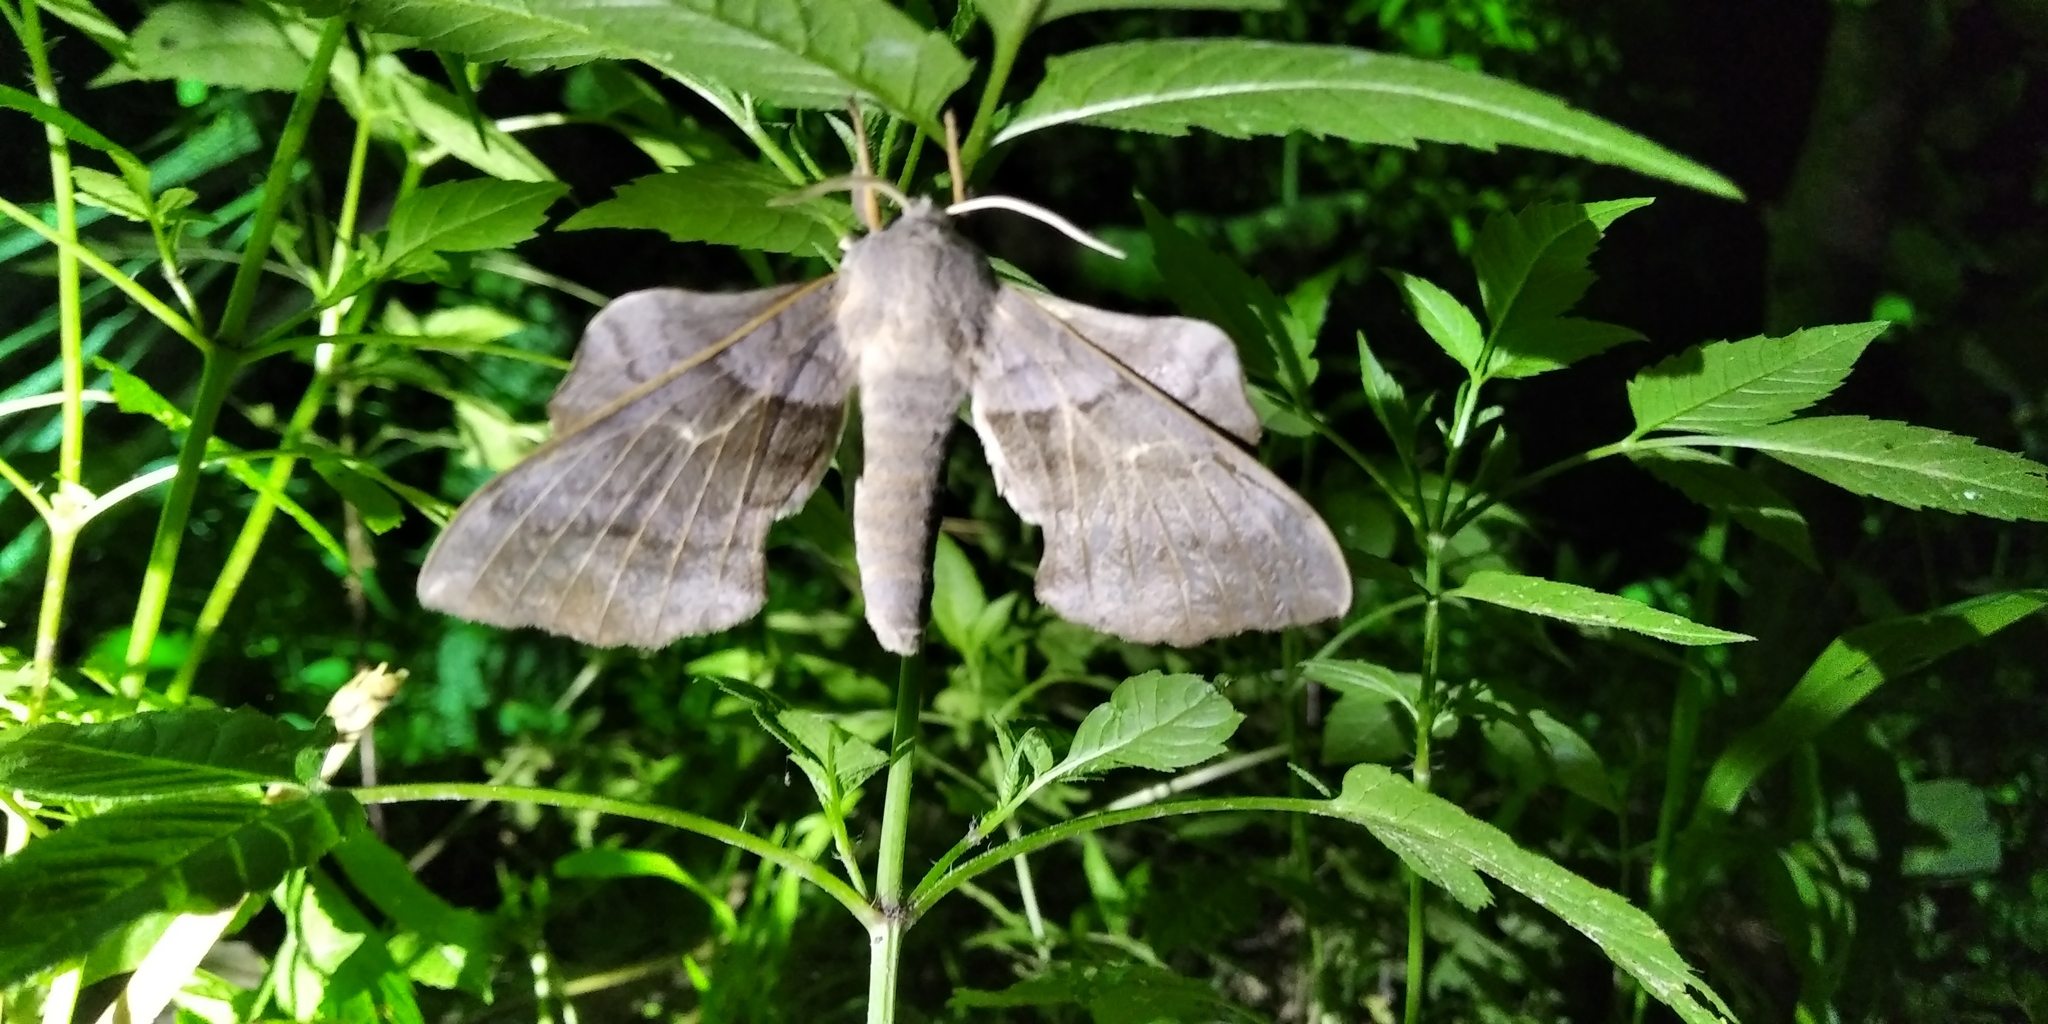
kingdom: Animalia
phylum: Arthropoda
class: Insecta
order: Lepidoptera
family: Sphingidae
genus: Laothoe
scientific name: Laothoe populi
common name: Poplar hawk-moth
